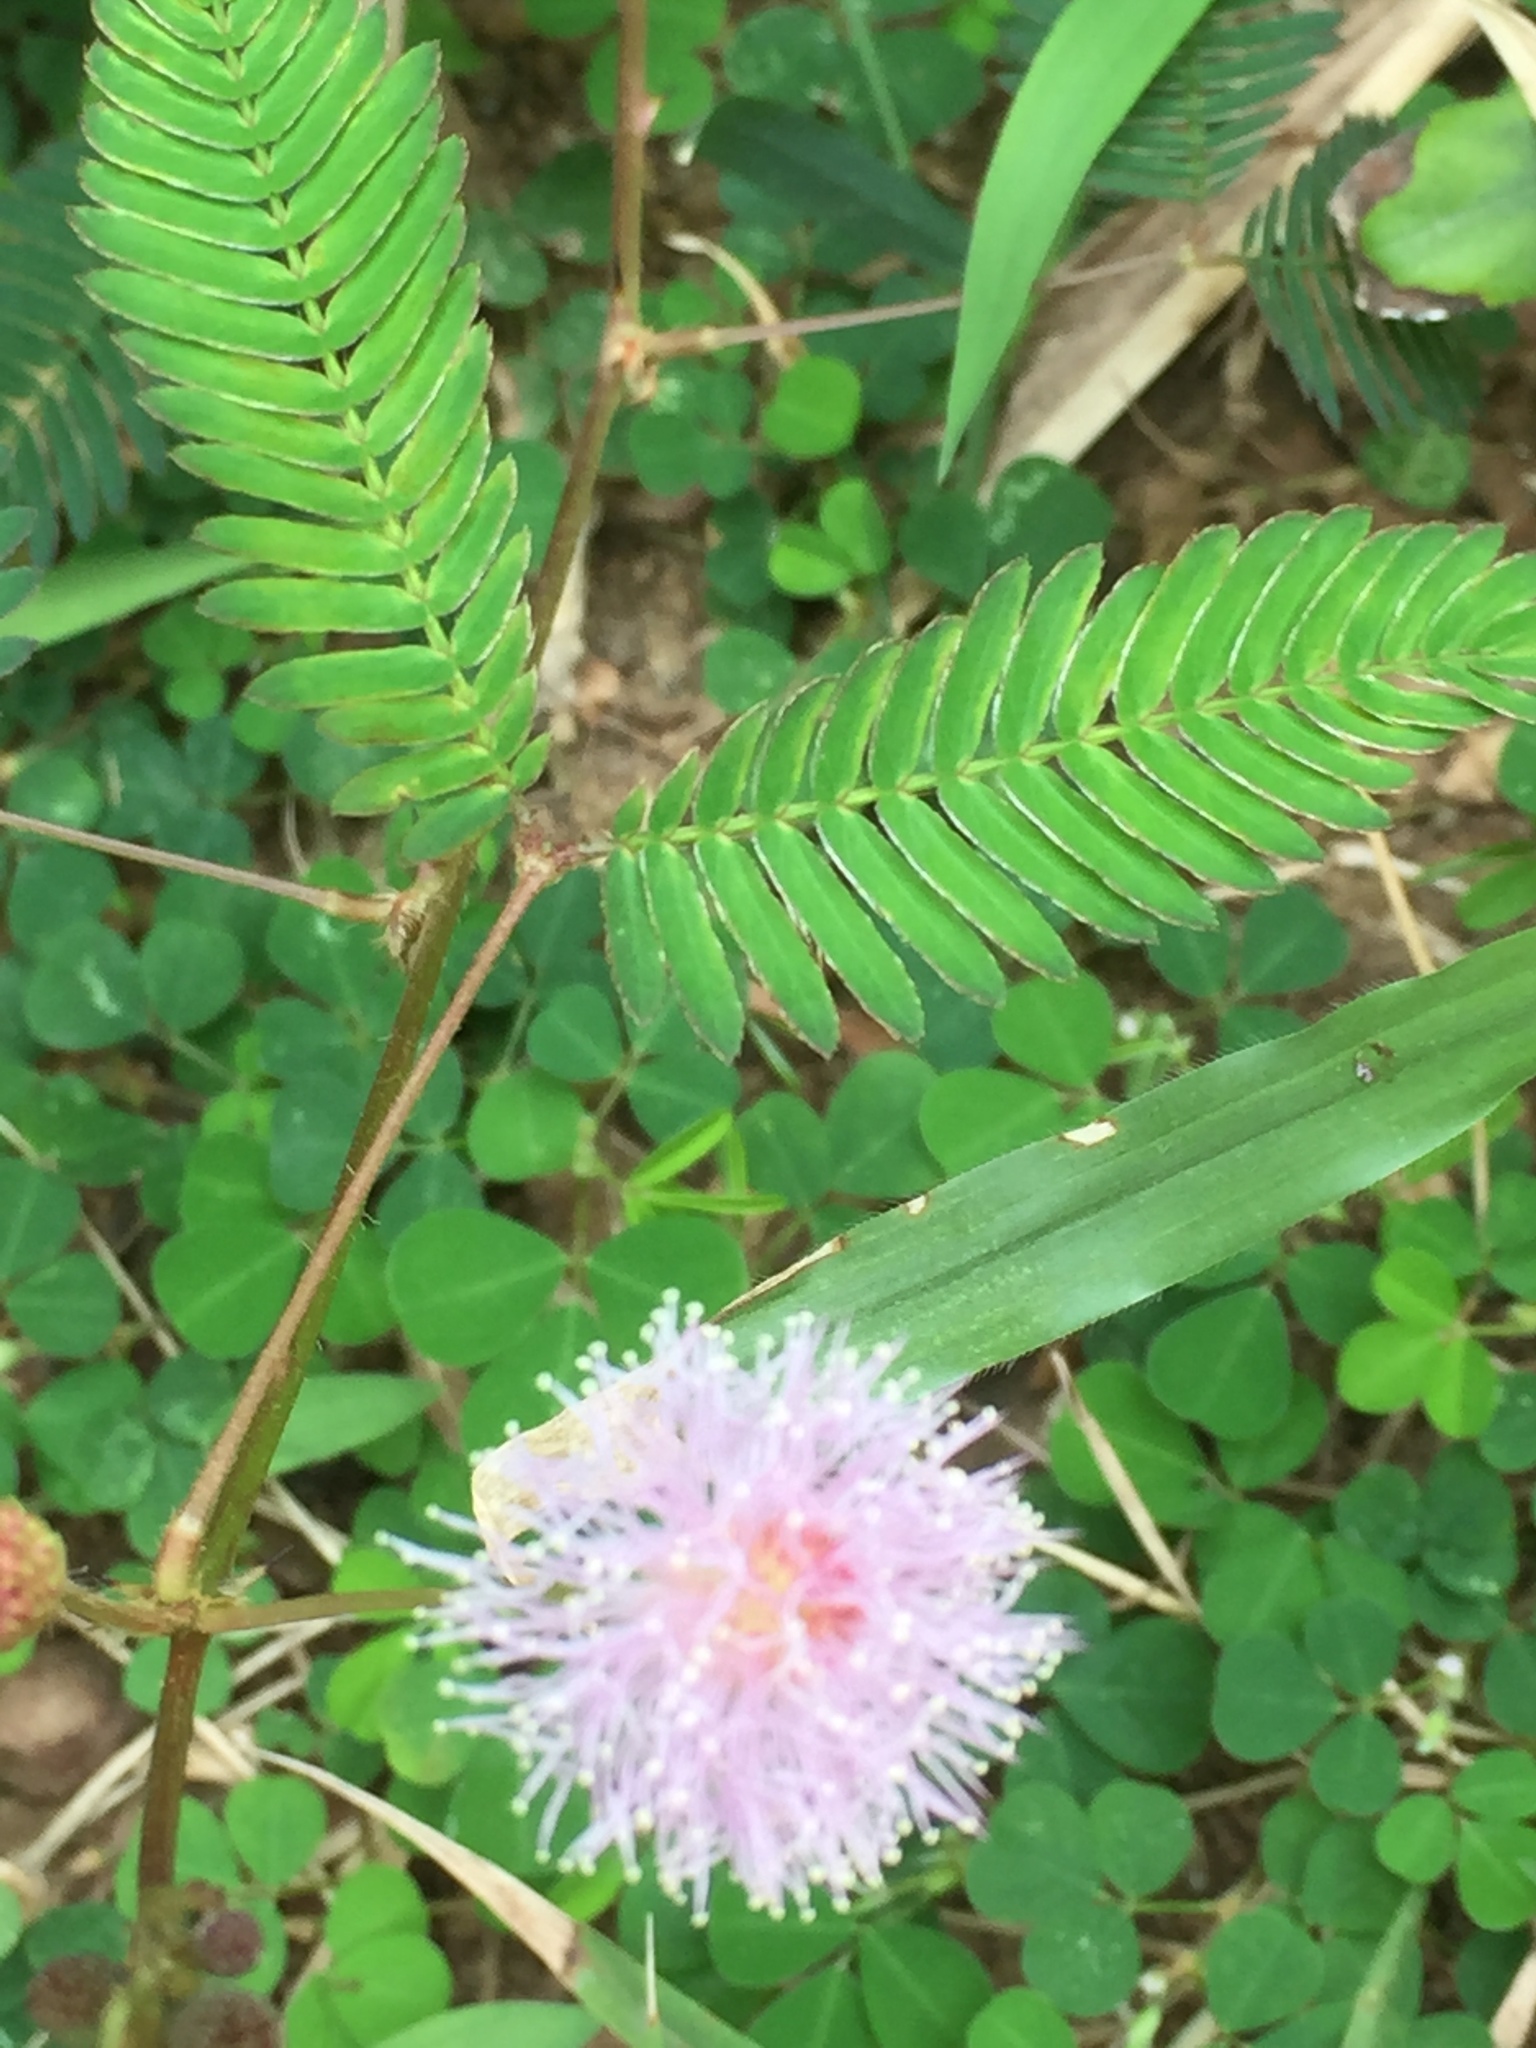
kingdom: Plantae
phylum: Tracheophyta
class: Magnoliopsida
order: Fabales
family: Fabaceae
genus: Mimosa
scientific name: Mimosa pudica
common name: Sensitive plant
